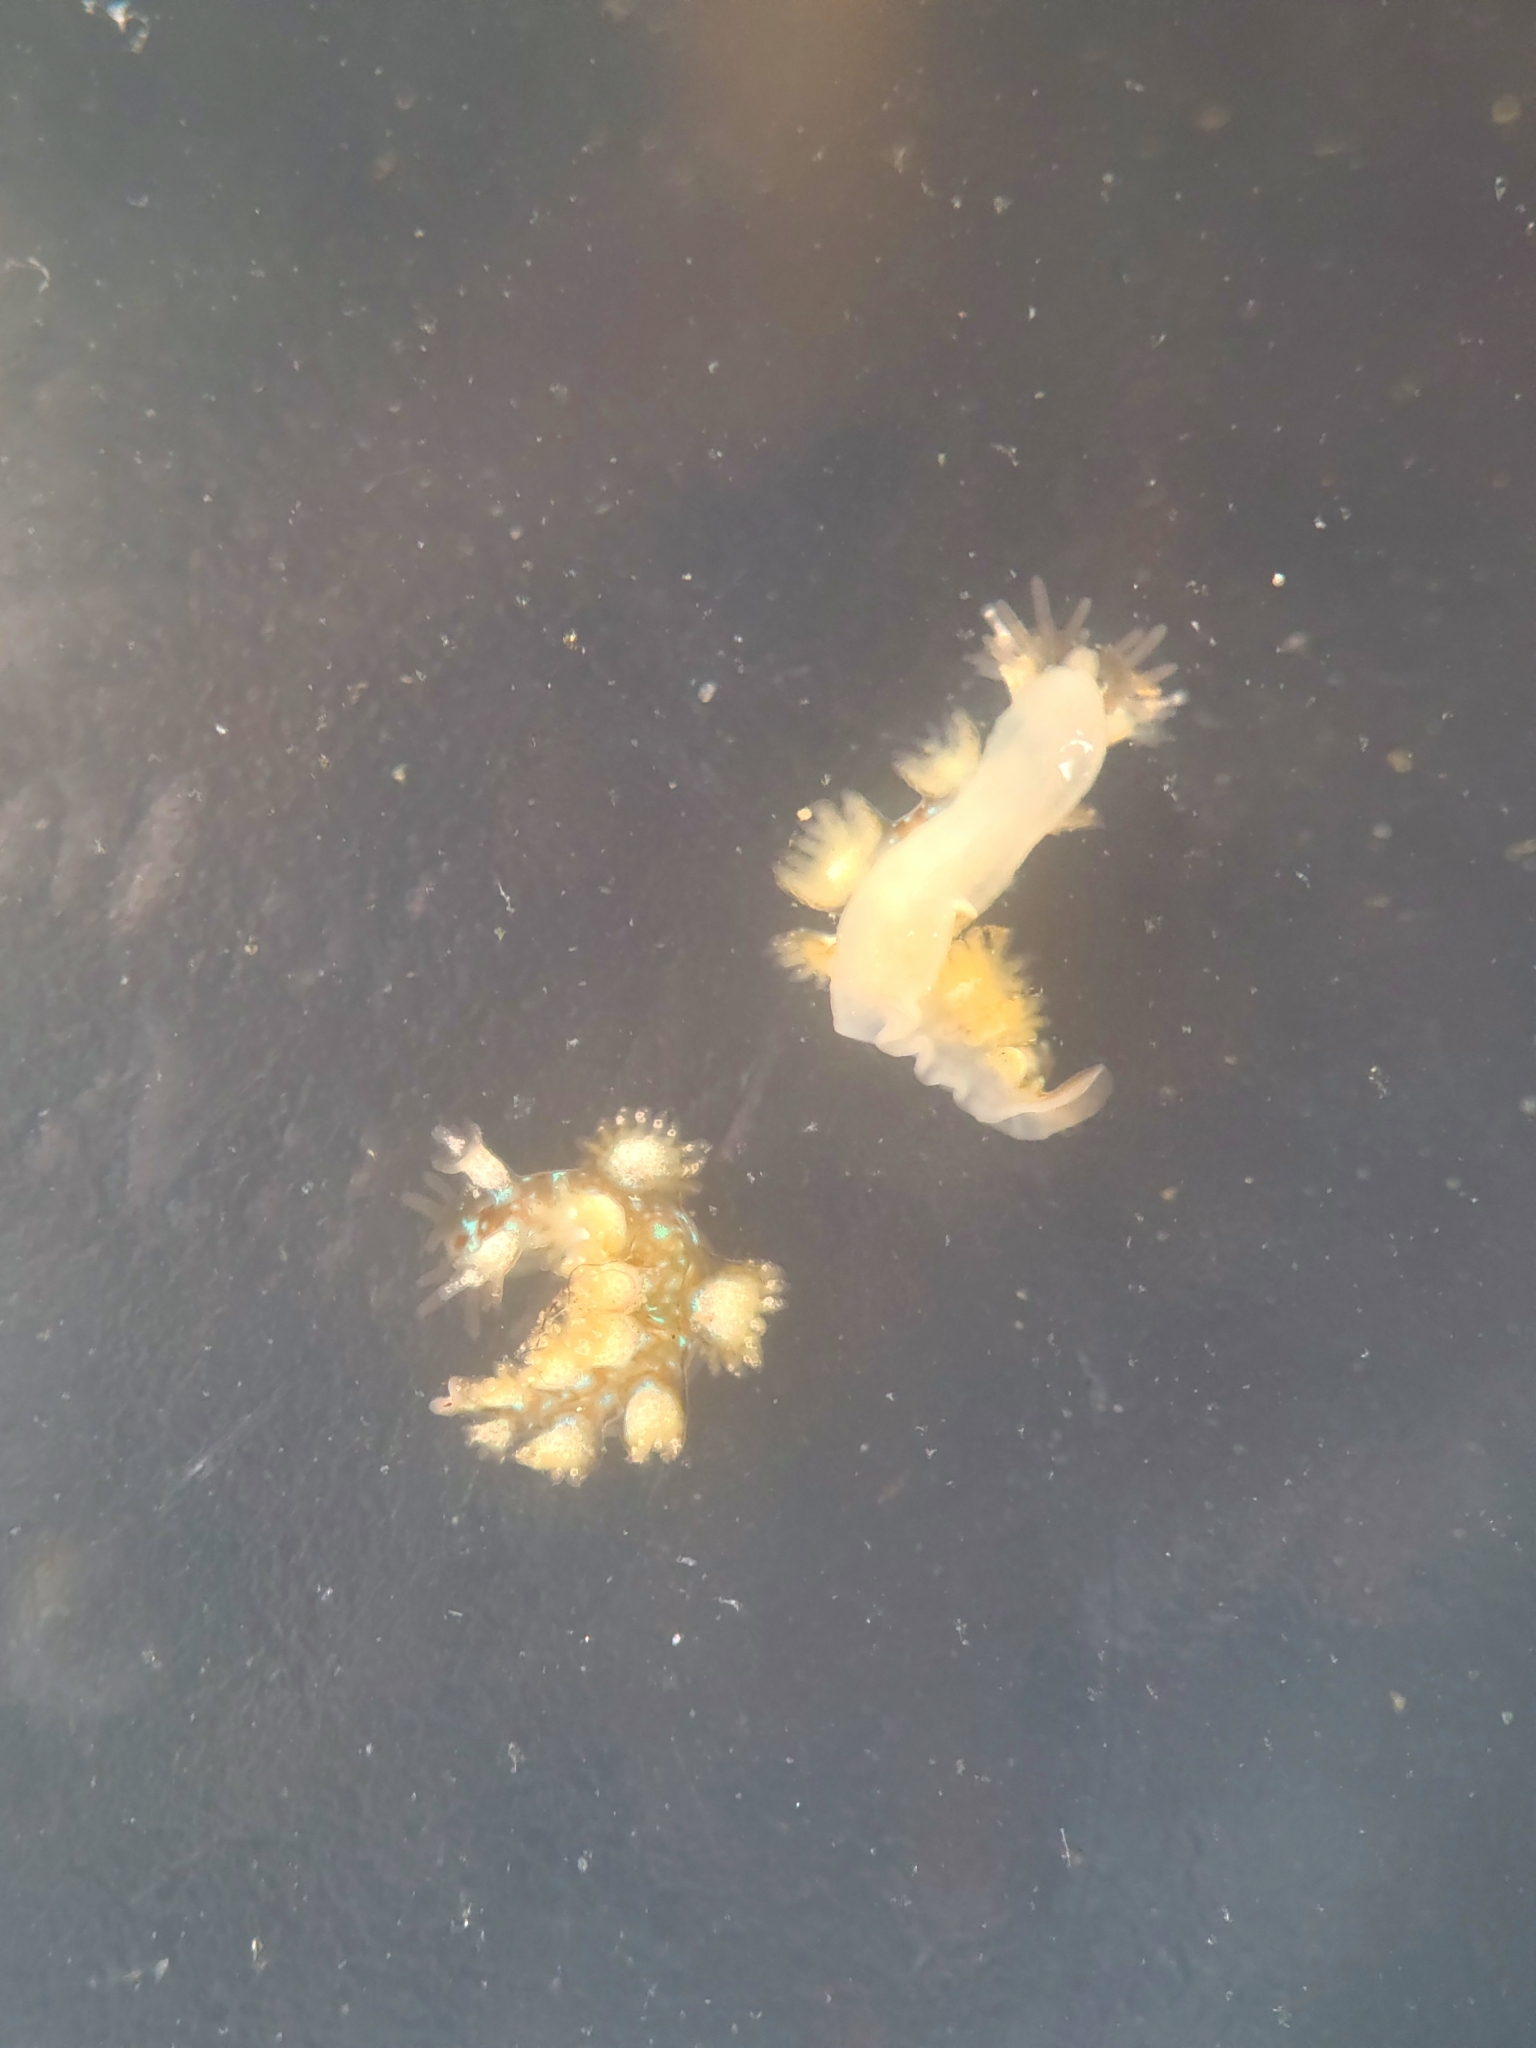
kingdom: Animalia
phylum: Mollusca
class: Gastropoda
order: Nudibranchia
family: Hancockiidae
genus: Hancockia
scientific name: Hancockia californica
